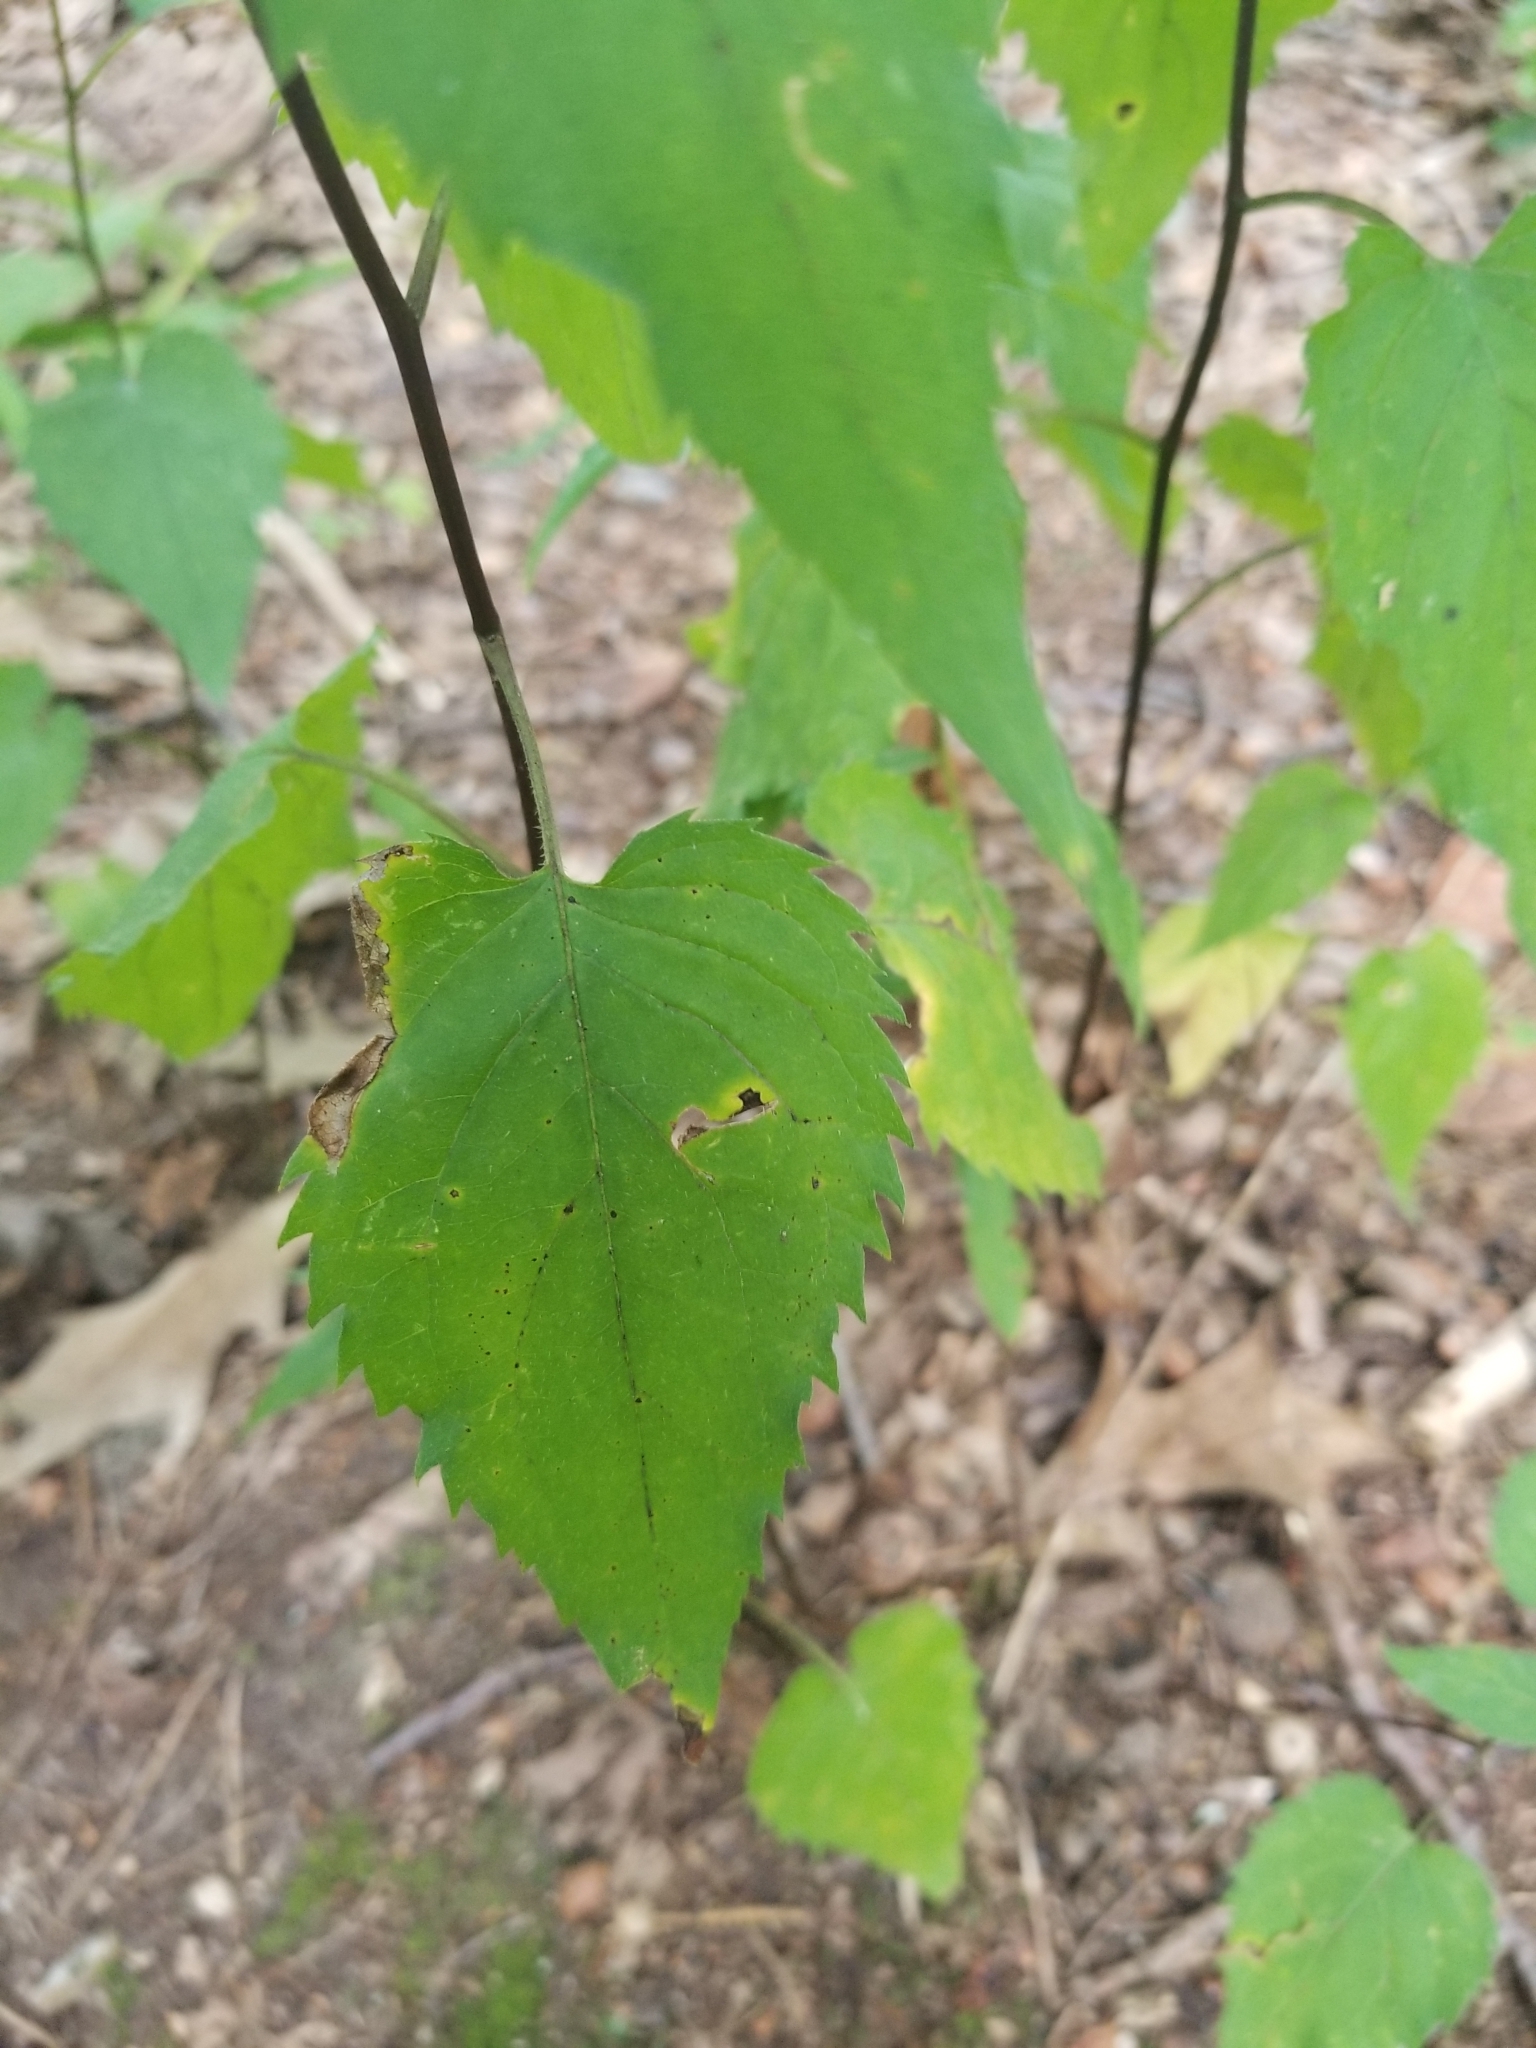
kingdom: Plantae
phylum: Tracheophyta
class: Magnoliopsida
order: Asterales
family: Asteraceae
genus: Eurybia
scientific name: Eurybia divaricata
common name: White wood aster
